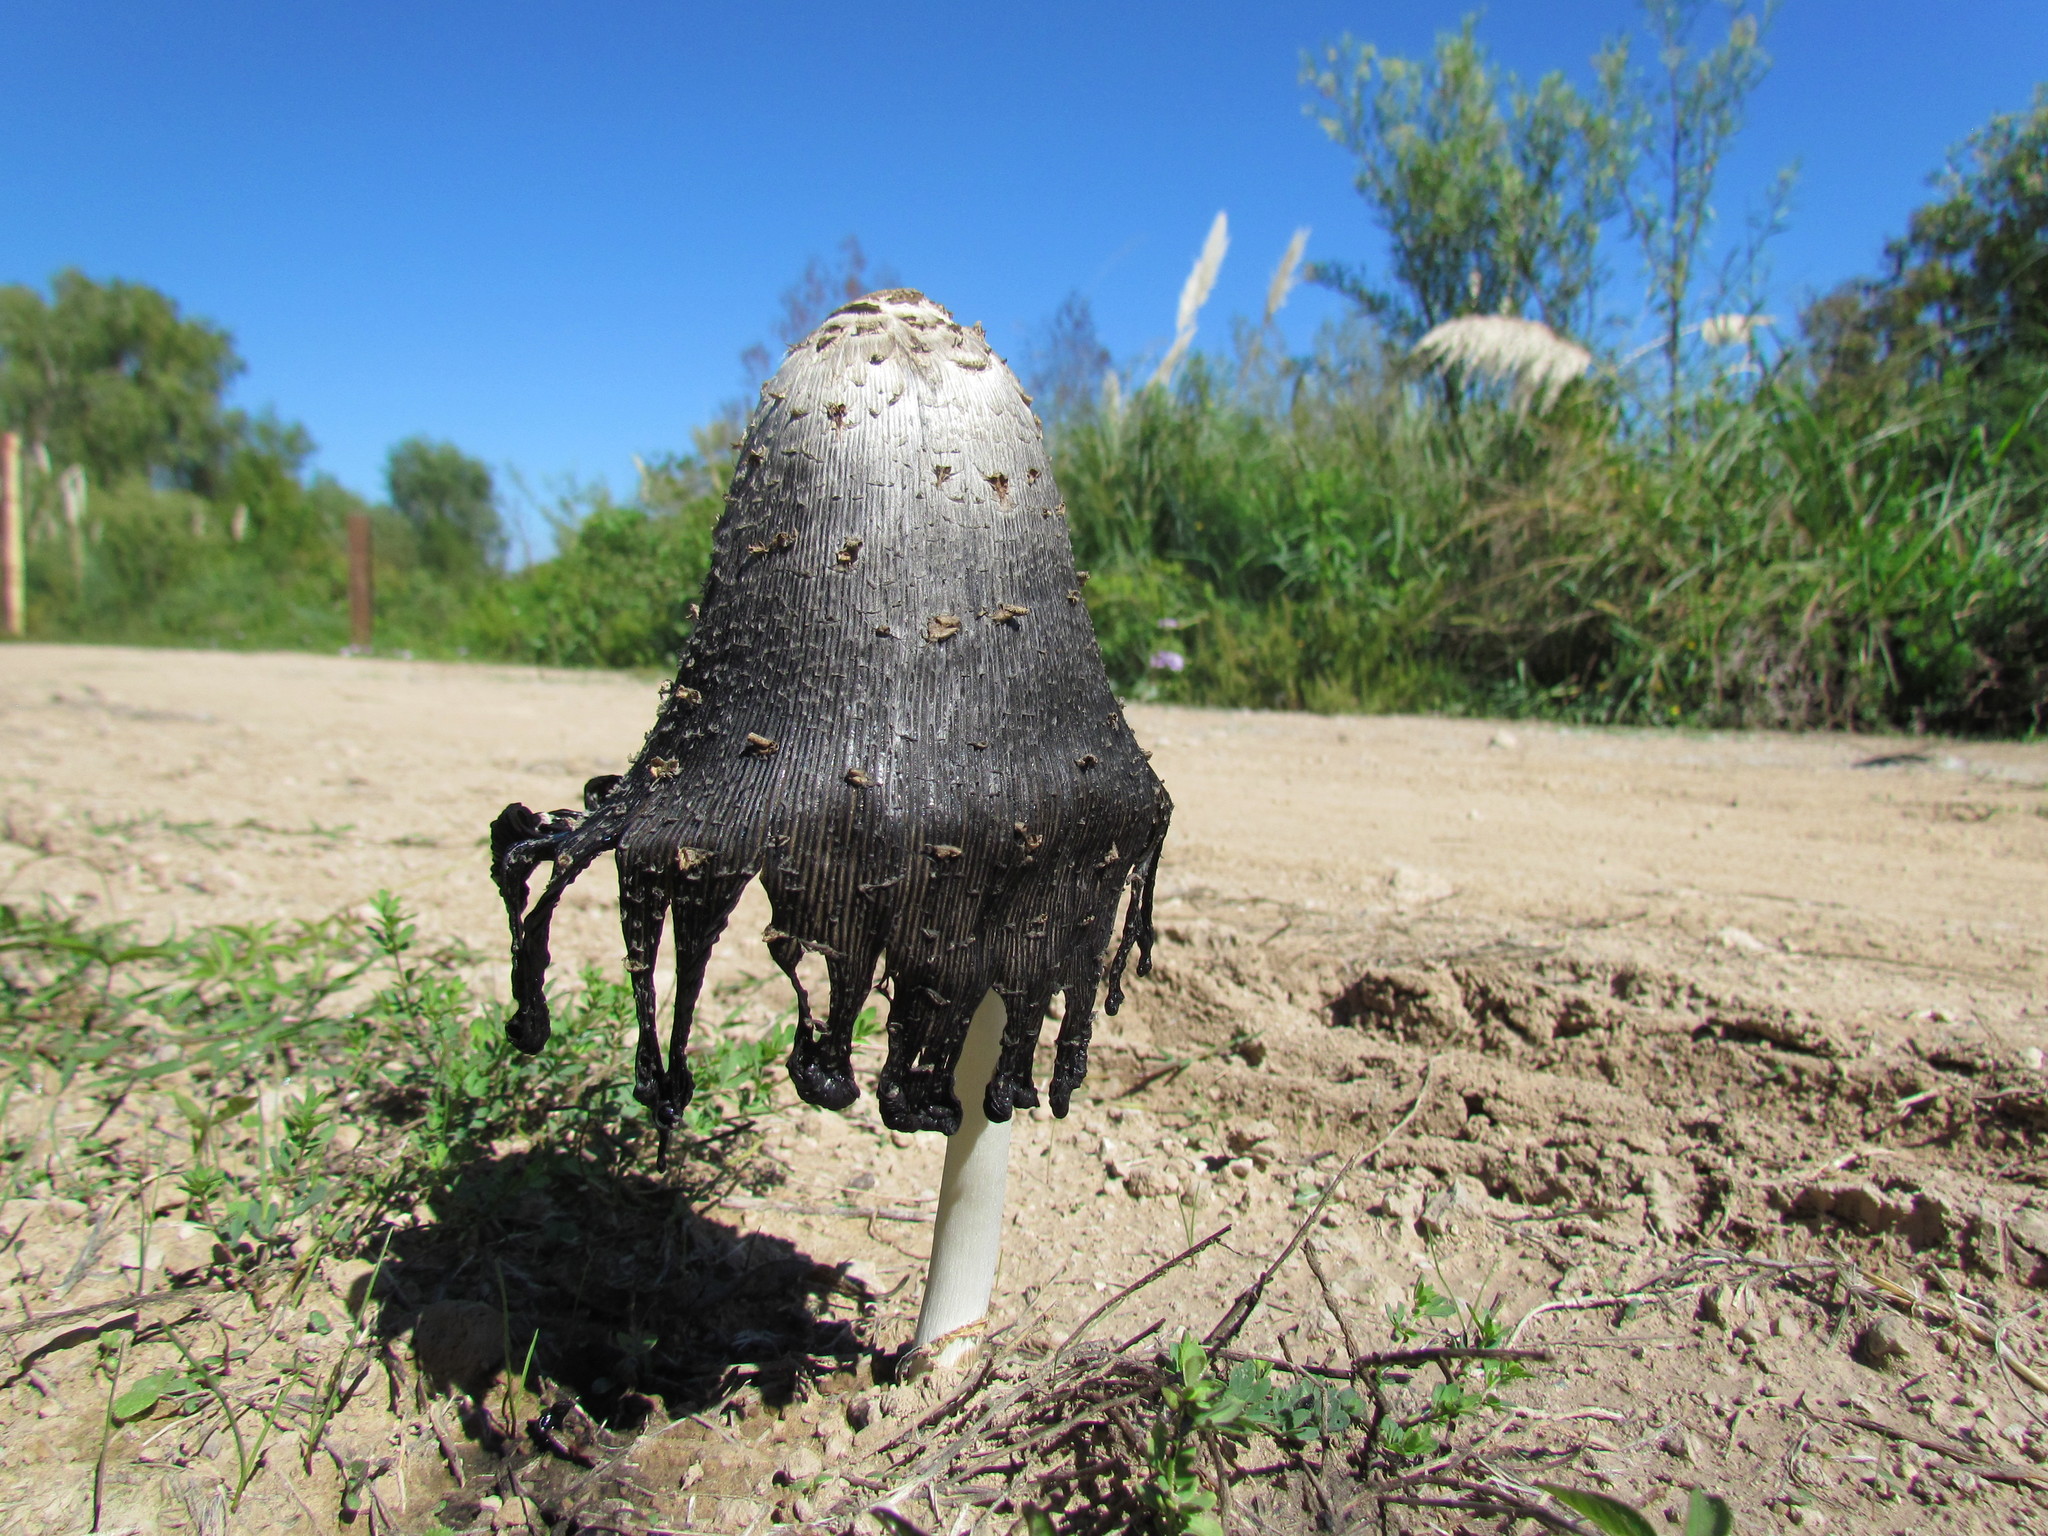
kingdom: Fungi
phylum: Basidiomycota
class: Agaricomycetes
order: Agaricales
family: Agaricaceae
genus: Coprinus
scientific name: Coprinus comatus
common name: Lawyer's wig
